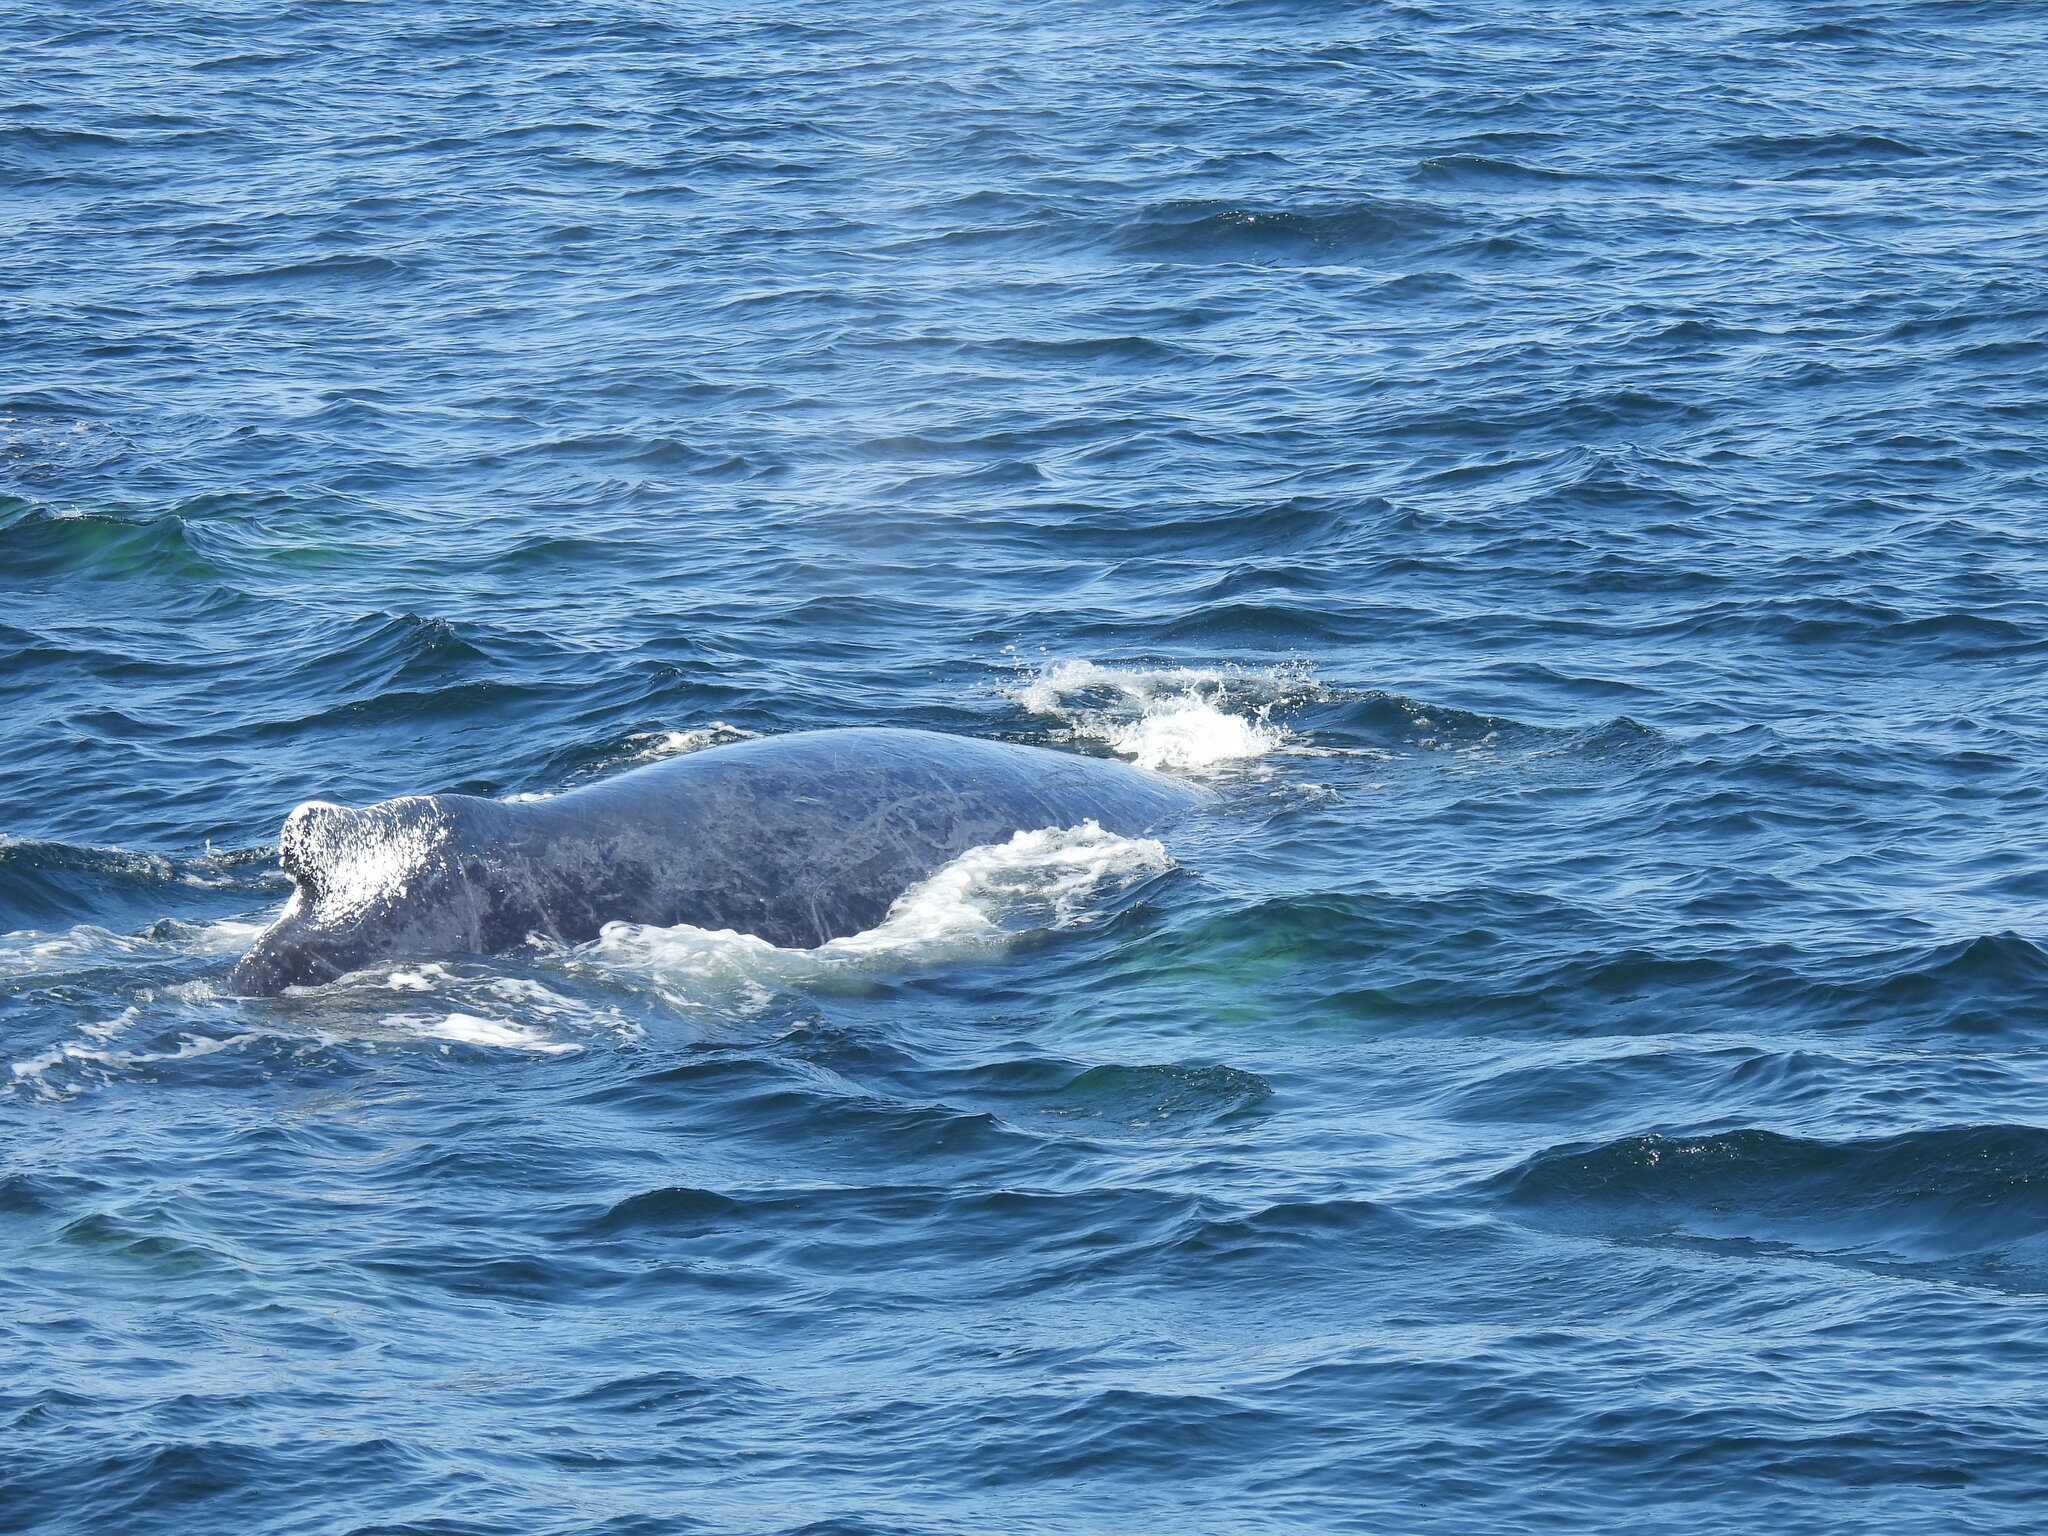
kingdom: Animalia
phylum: Chordata
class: Mammalia
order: Cetacea
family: Balaenopteridae
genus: Megaptera
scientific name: Megaptera novaeangliae
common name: Humpback whale
